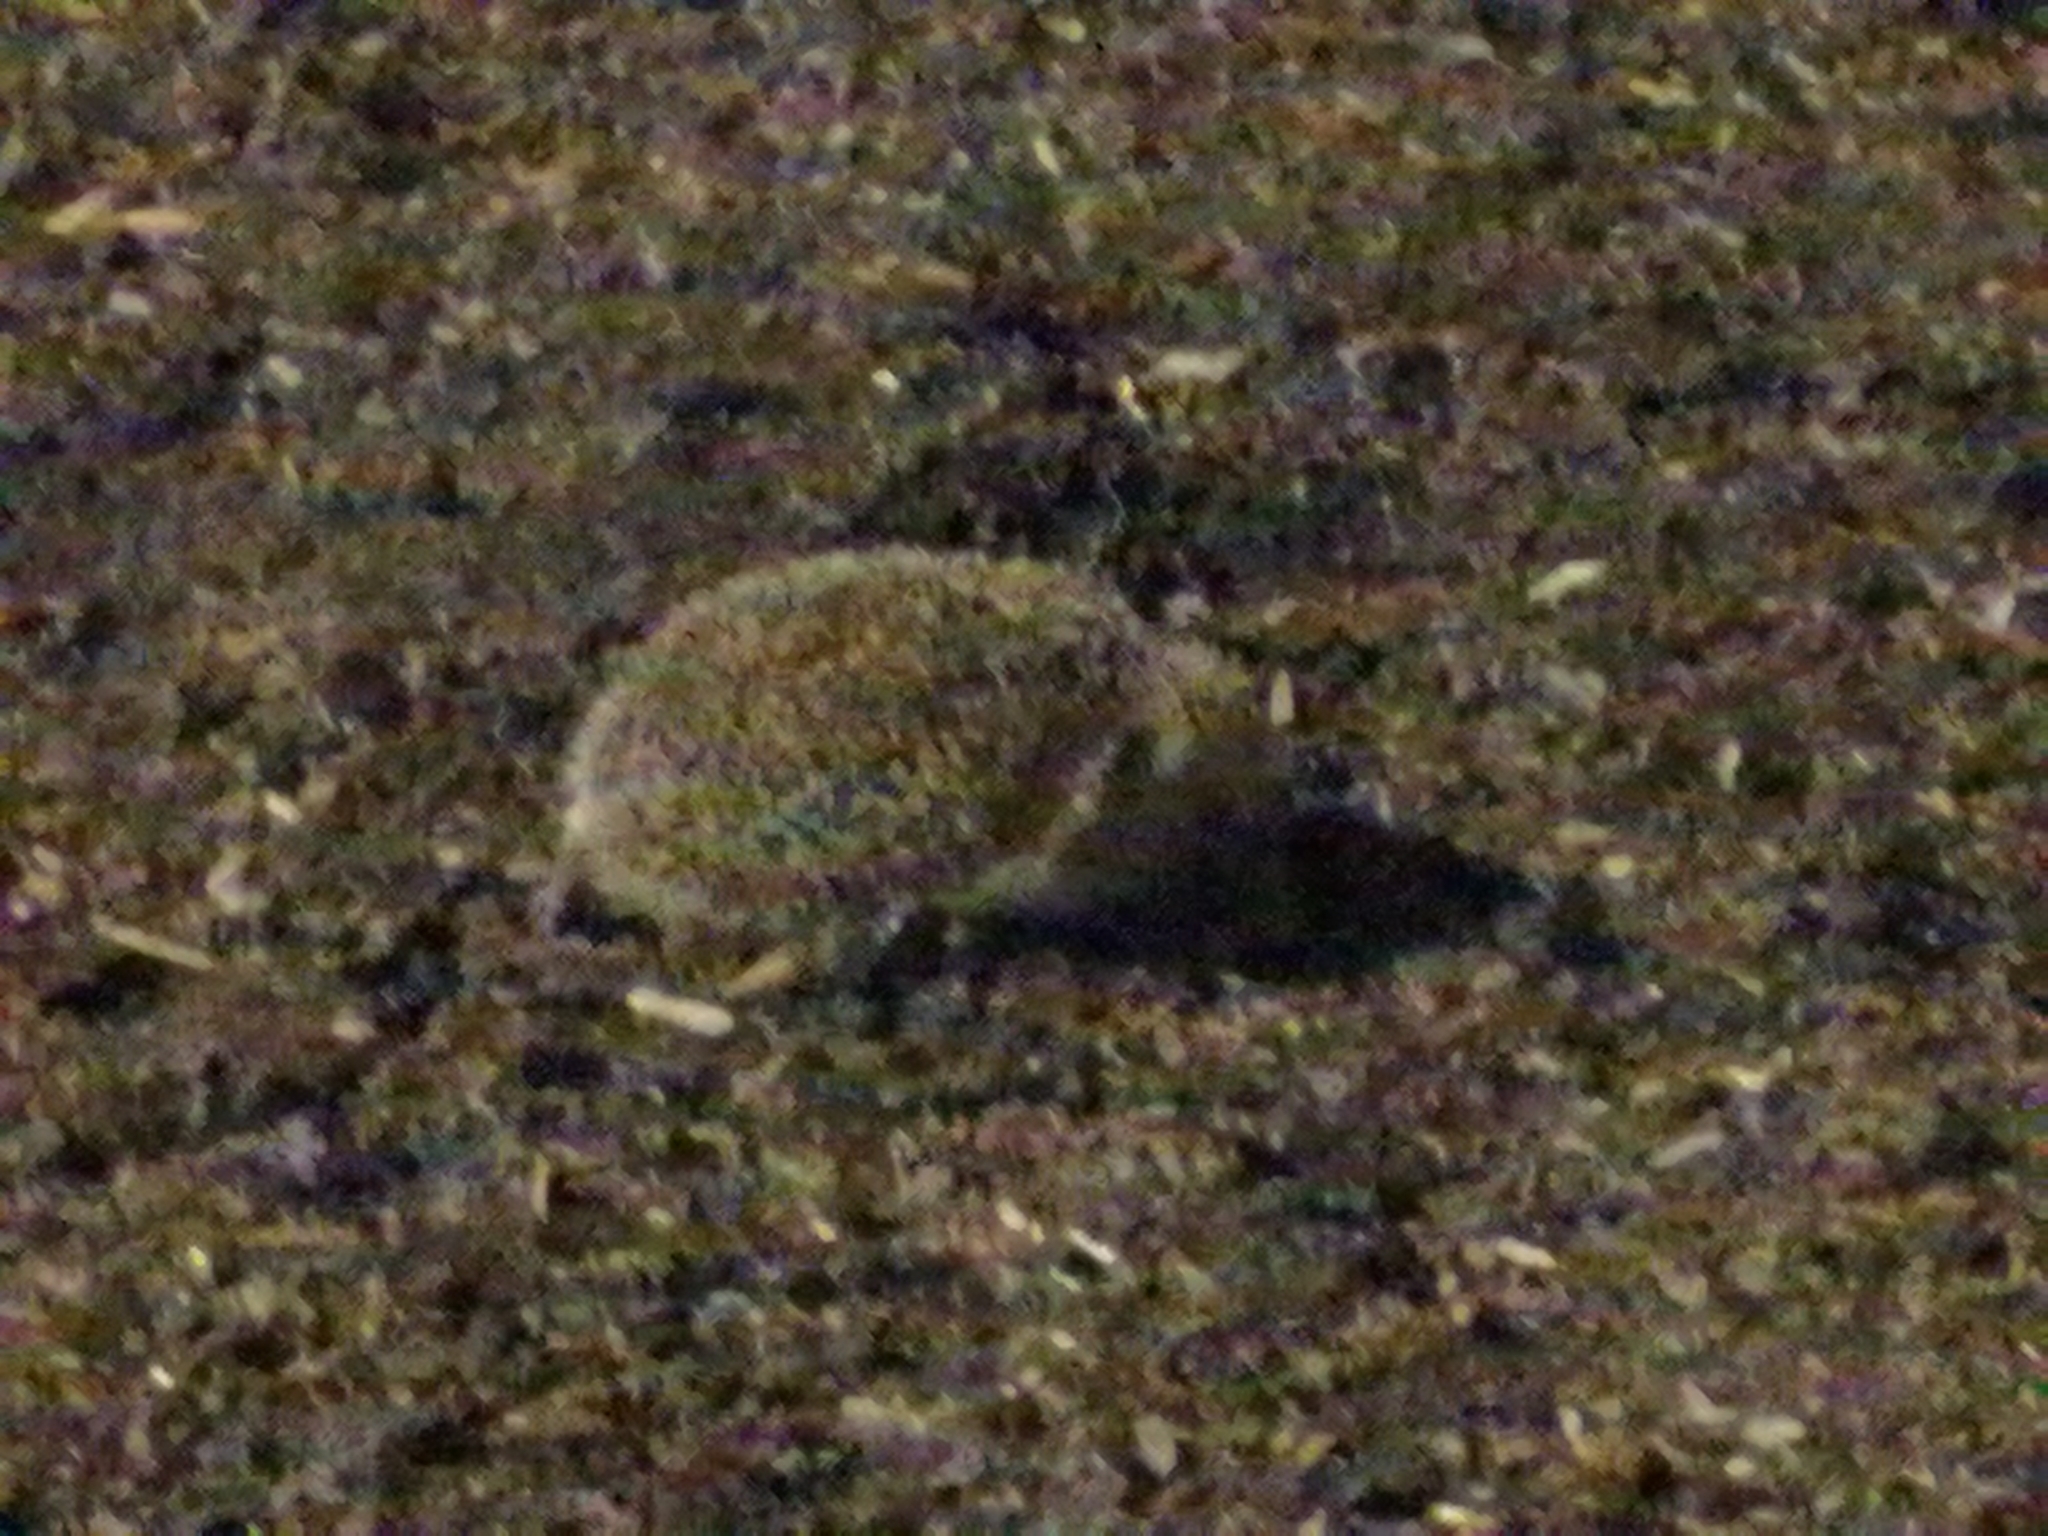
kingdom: Animalia
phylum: Chordata
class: Mammalia
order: Erinaceomorpha
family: Erinaceidae
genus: Erinaceus
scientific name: Erinaceus europaeus
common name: West european hedgehog
